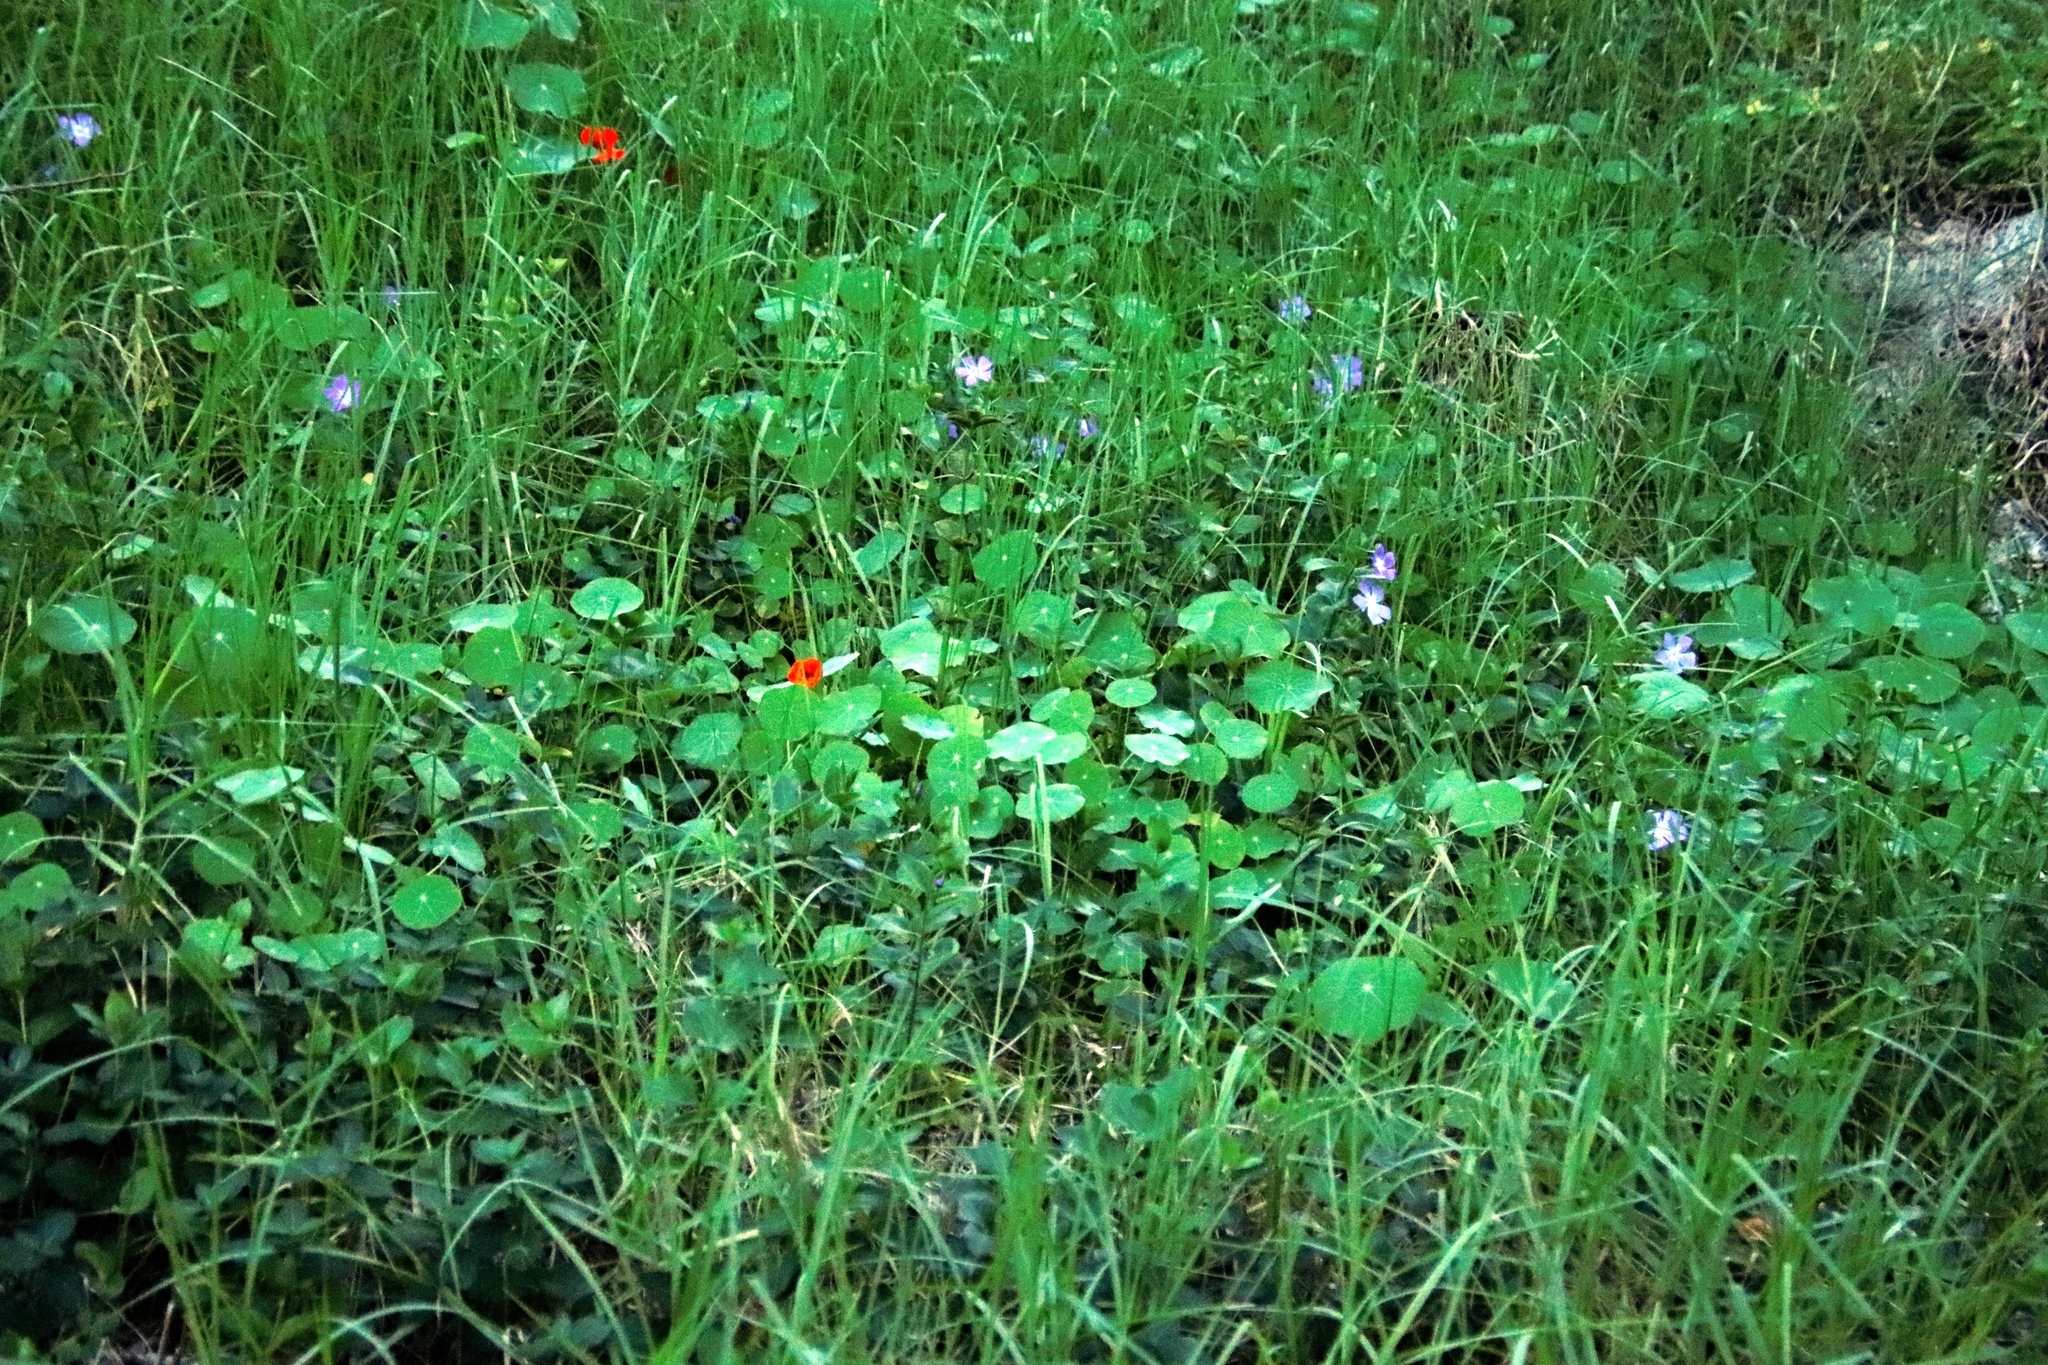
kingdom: Plantae
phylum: Tracheophyta
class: Magnoliopsida
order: Gentianales
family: Apocynaceae
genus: Vinca
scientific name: Vinca major
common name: Greater periwinkle
